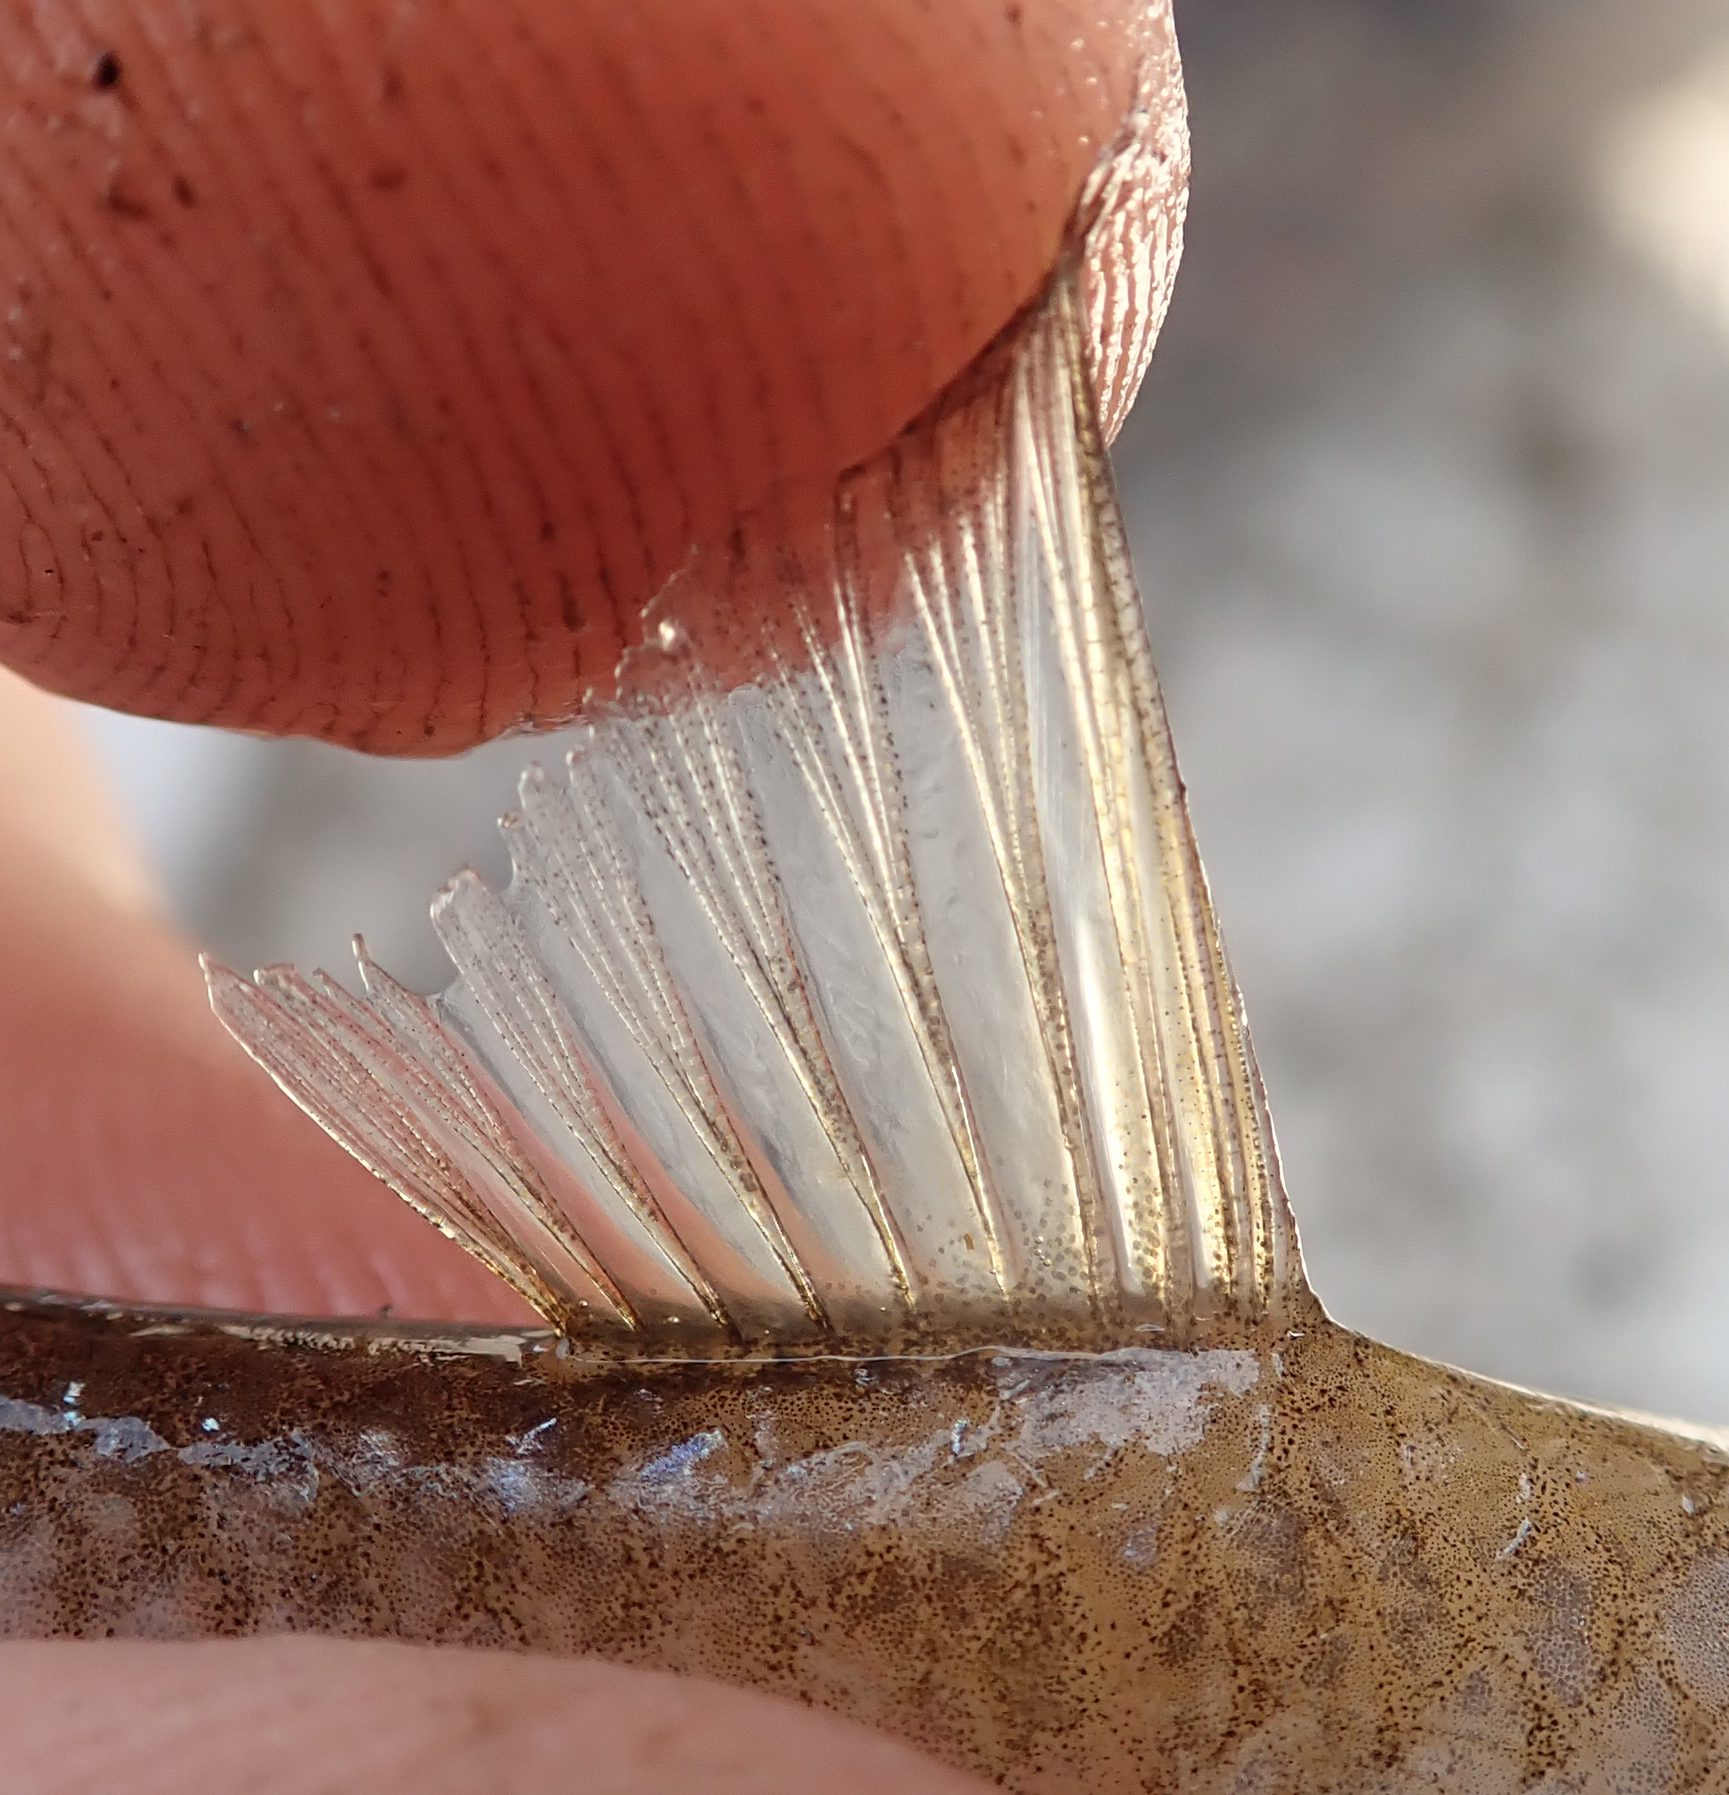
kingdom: Animalia
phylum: Chordata
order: Cypriniformes
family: Cyprinidae
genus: Enteromius
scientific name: Enteromius unitaeniatus
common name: Longbeard barb
